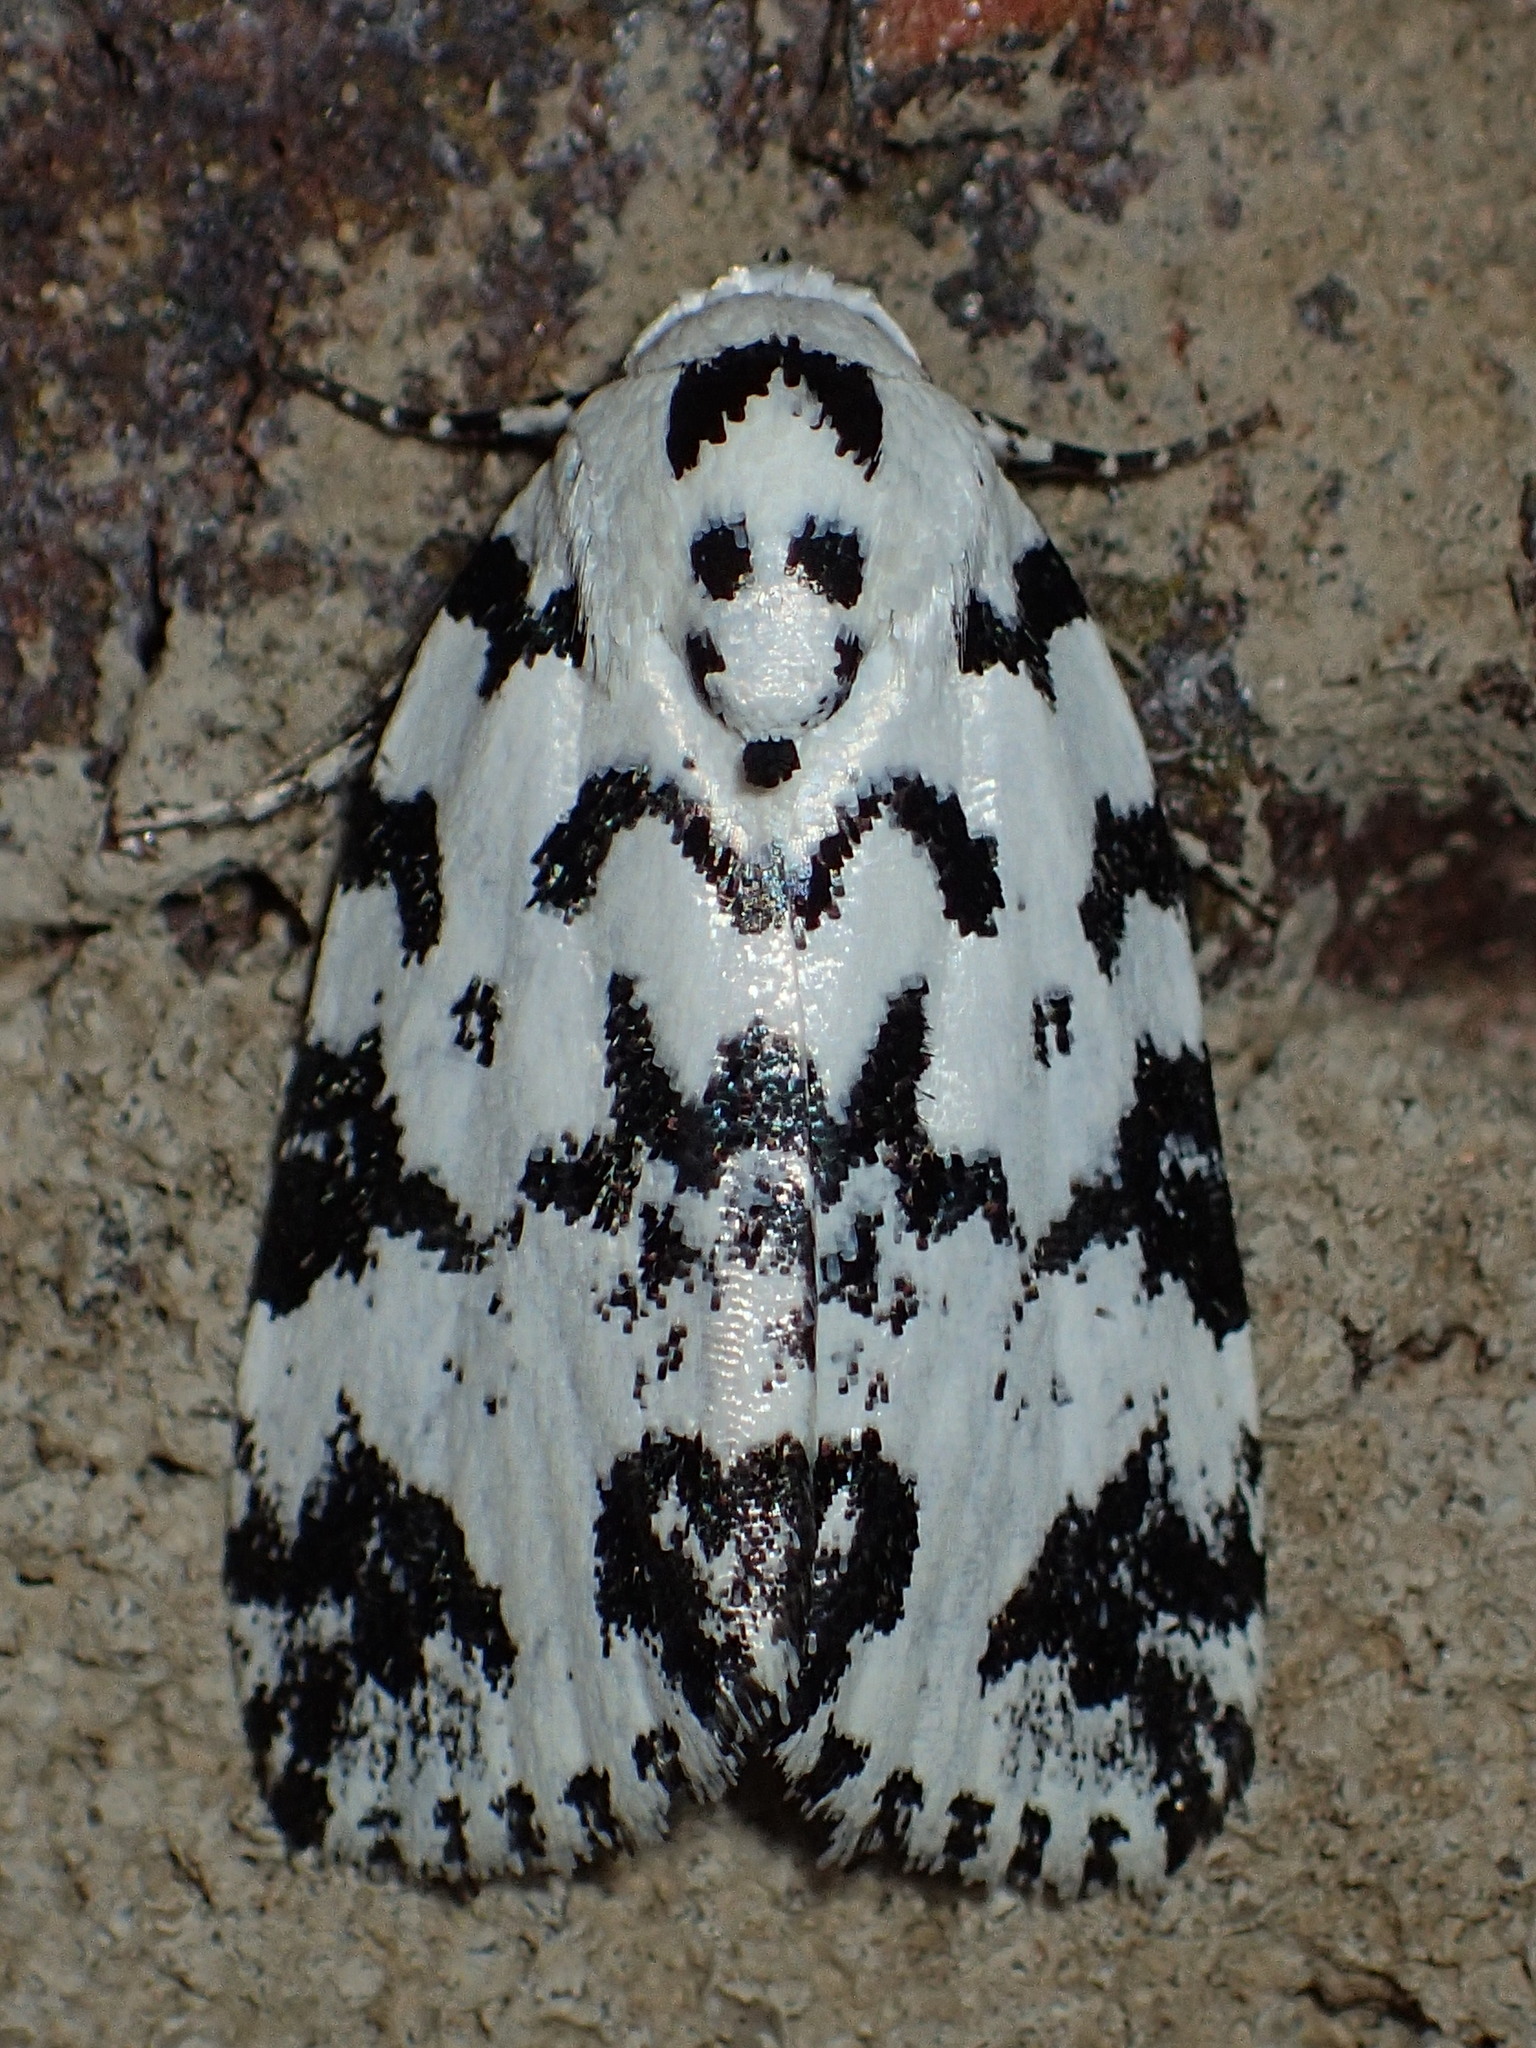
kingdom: Animalia
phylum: Arthropoda
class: Insecta
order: Lepidoptera
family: Noctuidae
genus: Polygrammate
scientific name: Polygrammate hebraeicum
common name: Hebrew moth
